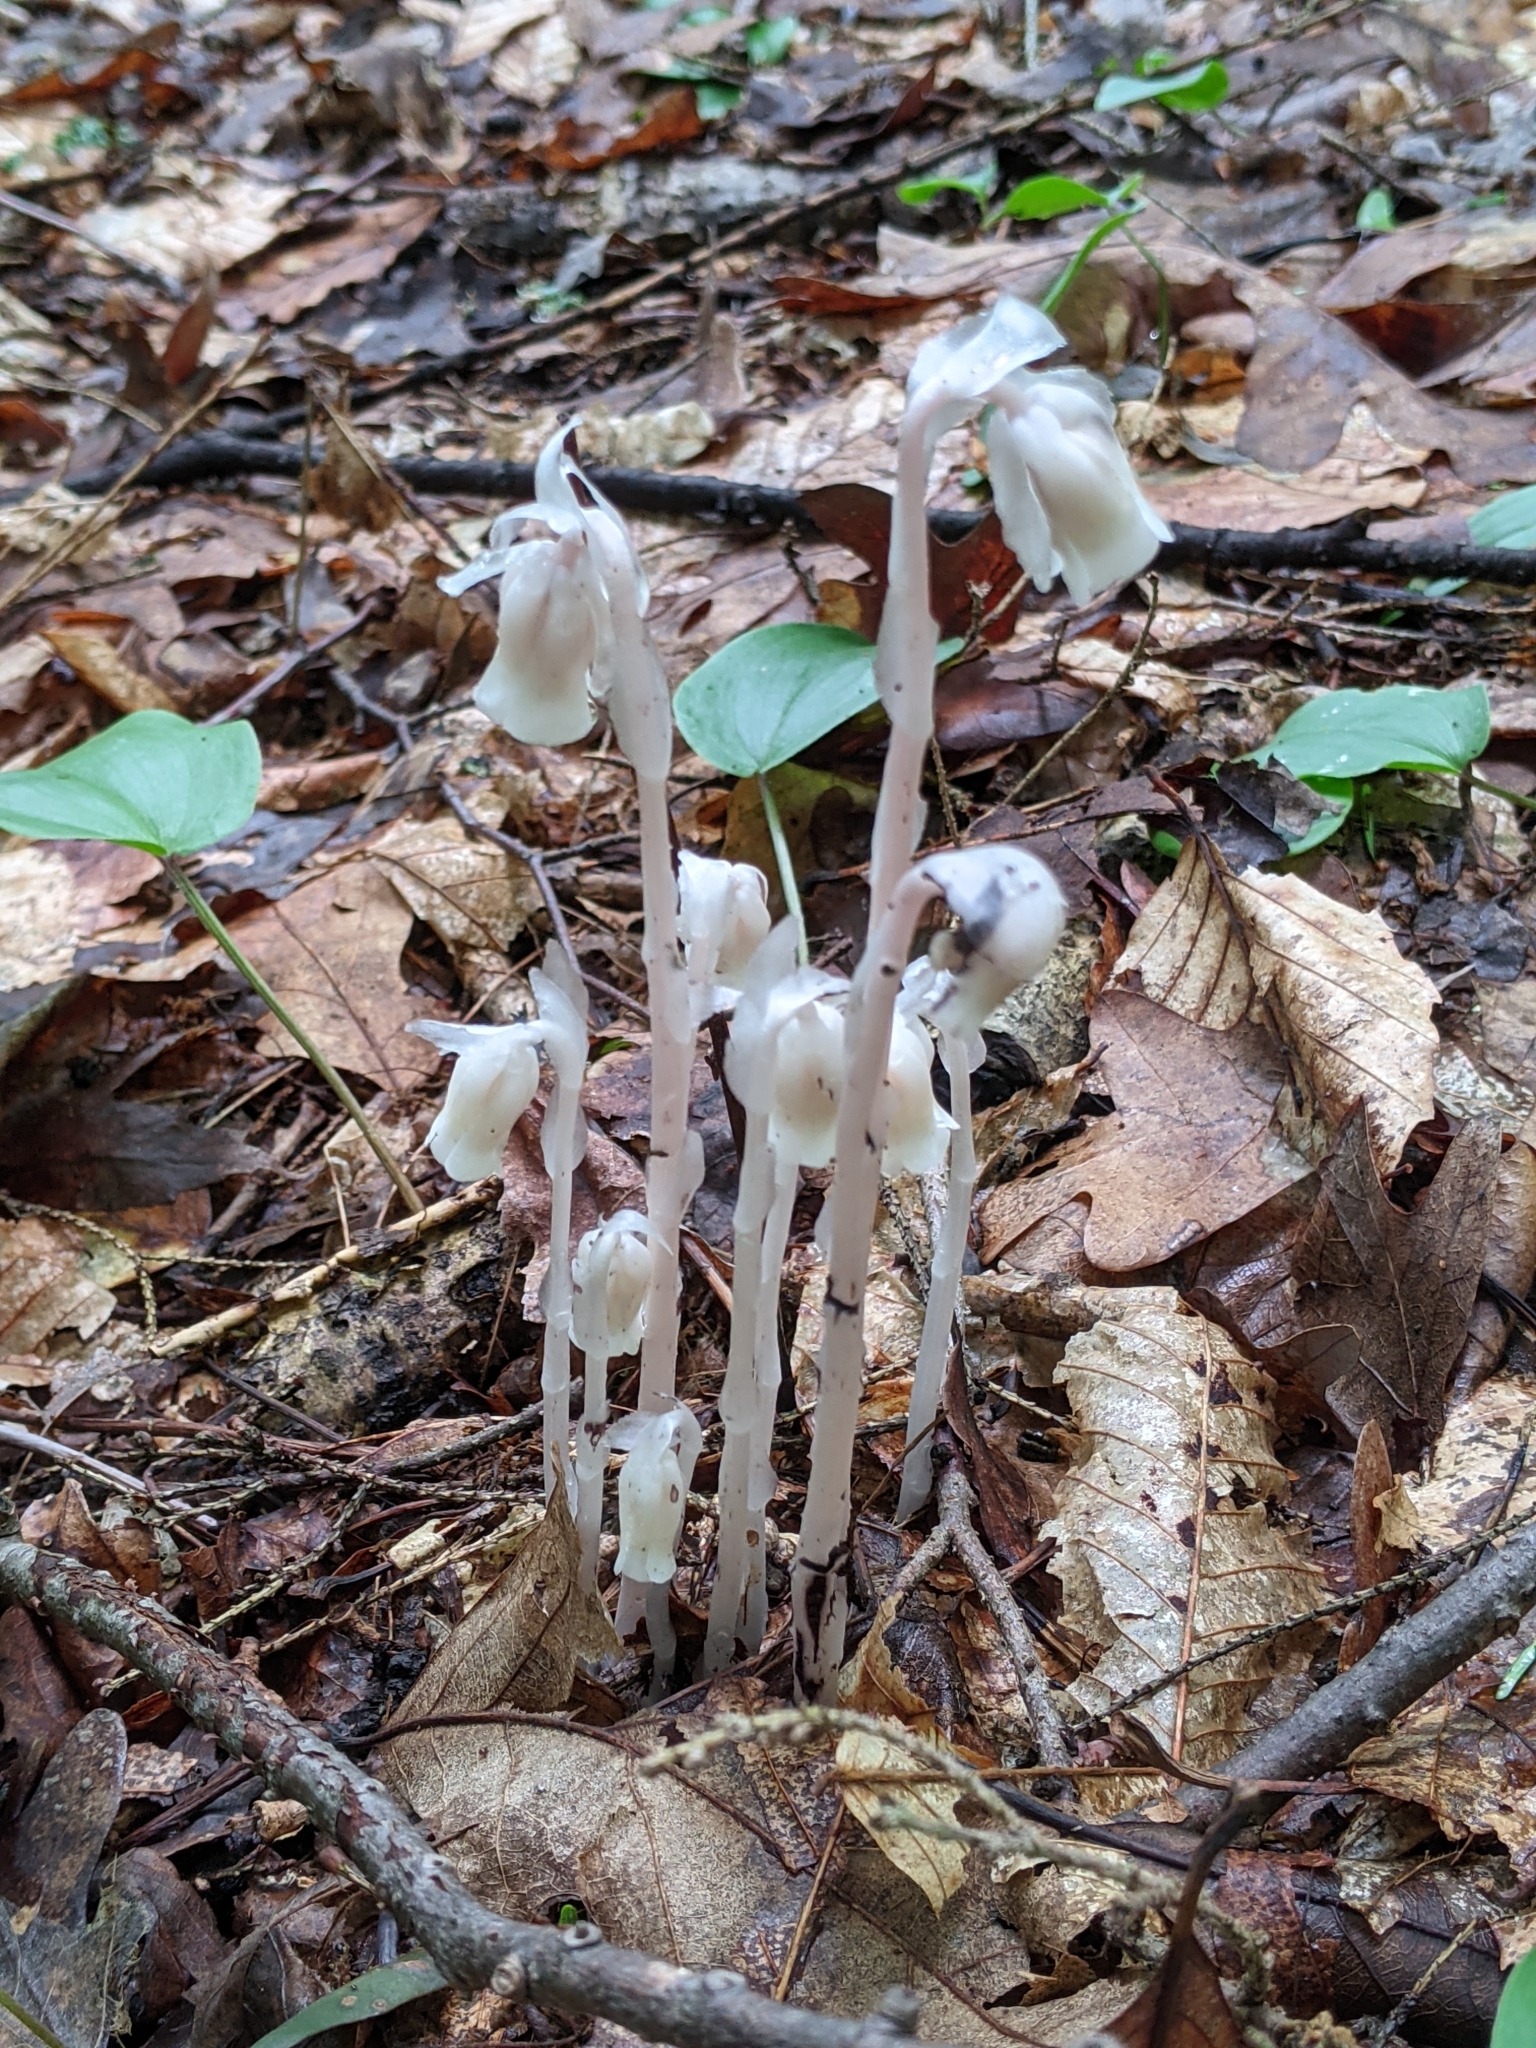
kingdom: Plantae
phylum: Tracheophyta
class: Magnoliopsida
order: Ericales
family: Ericaceae
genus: Monotropa
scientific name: Monotropa uniflora
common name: Convulsion root
